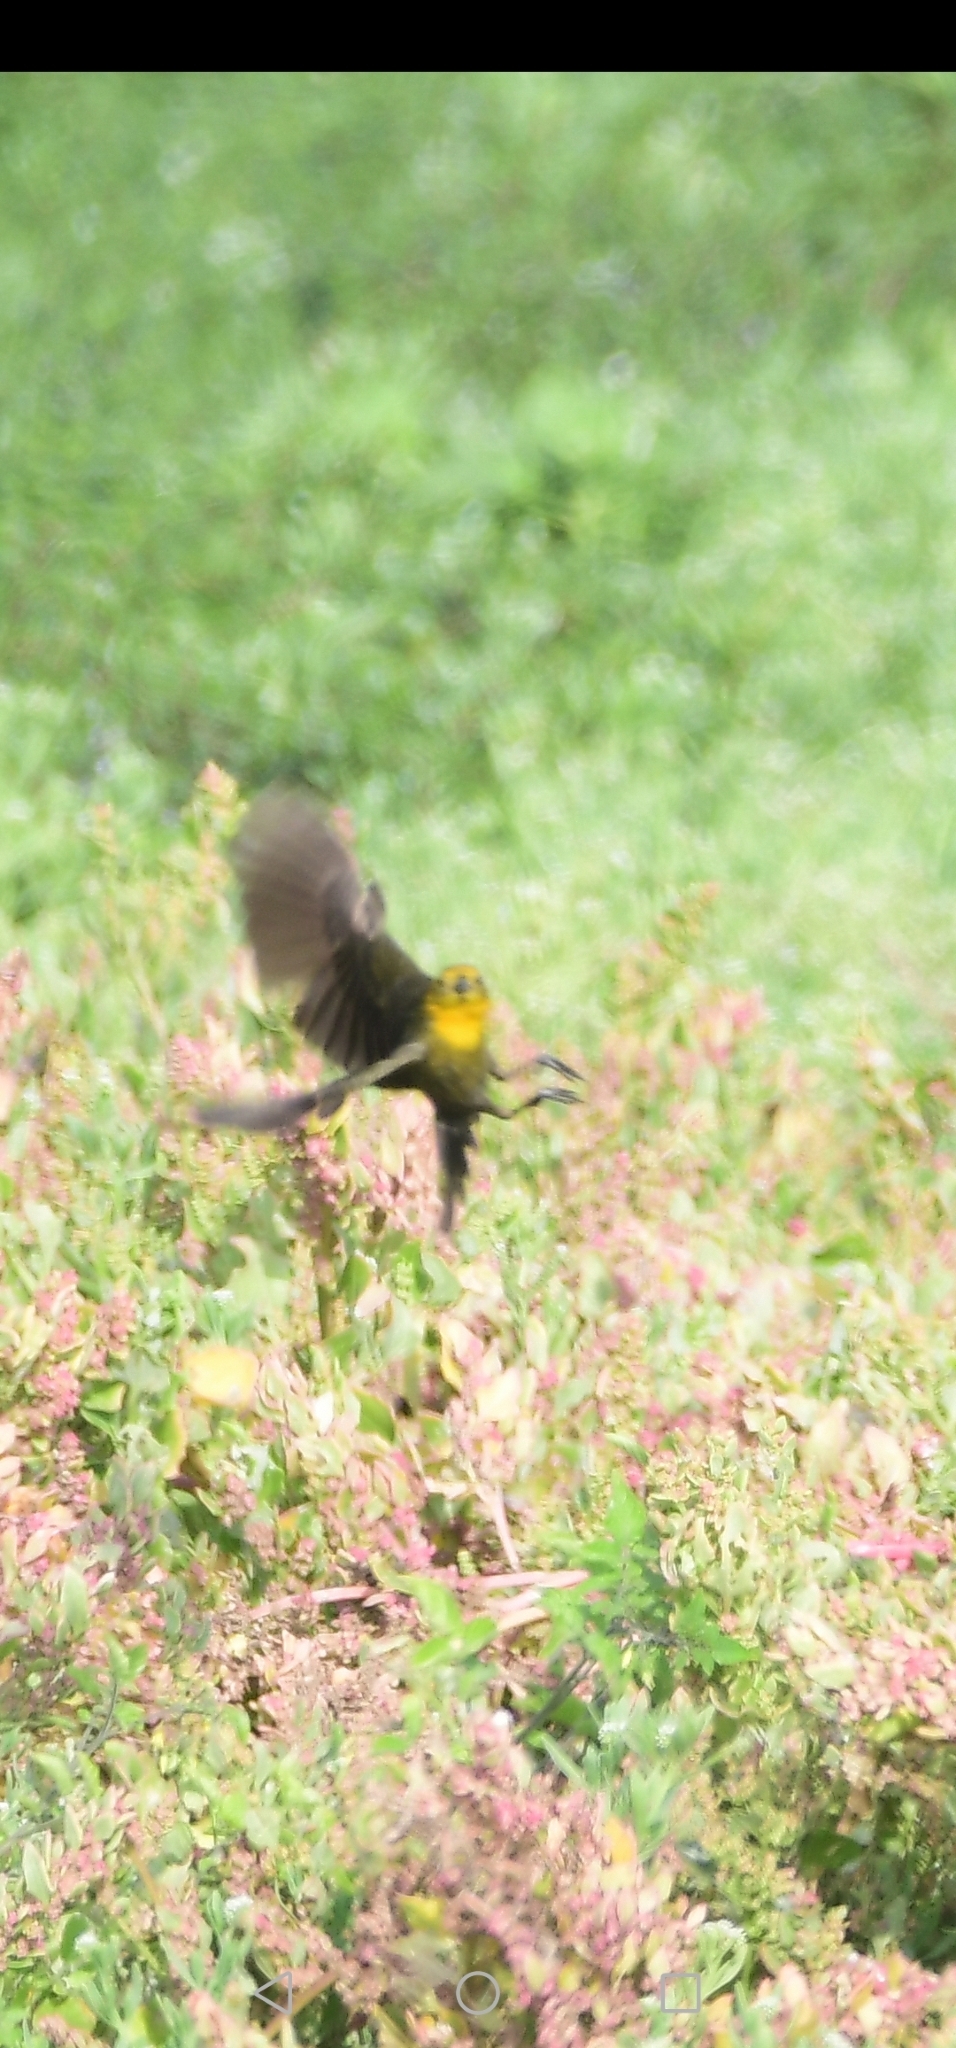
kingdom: Animalia
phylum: Chordata
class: Aves
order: Passeriformes
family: Icteridae
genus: Chrysomus
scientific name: Chrysomus icterocephalus
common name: Yellow-hooded blackbird
